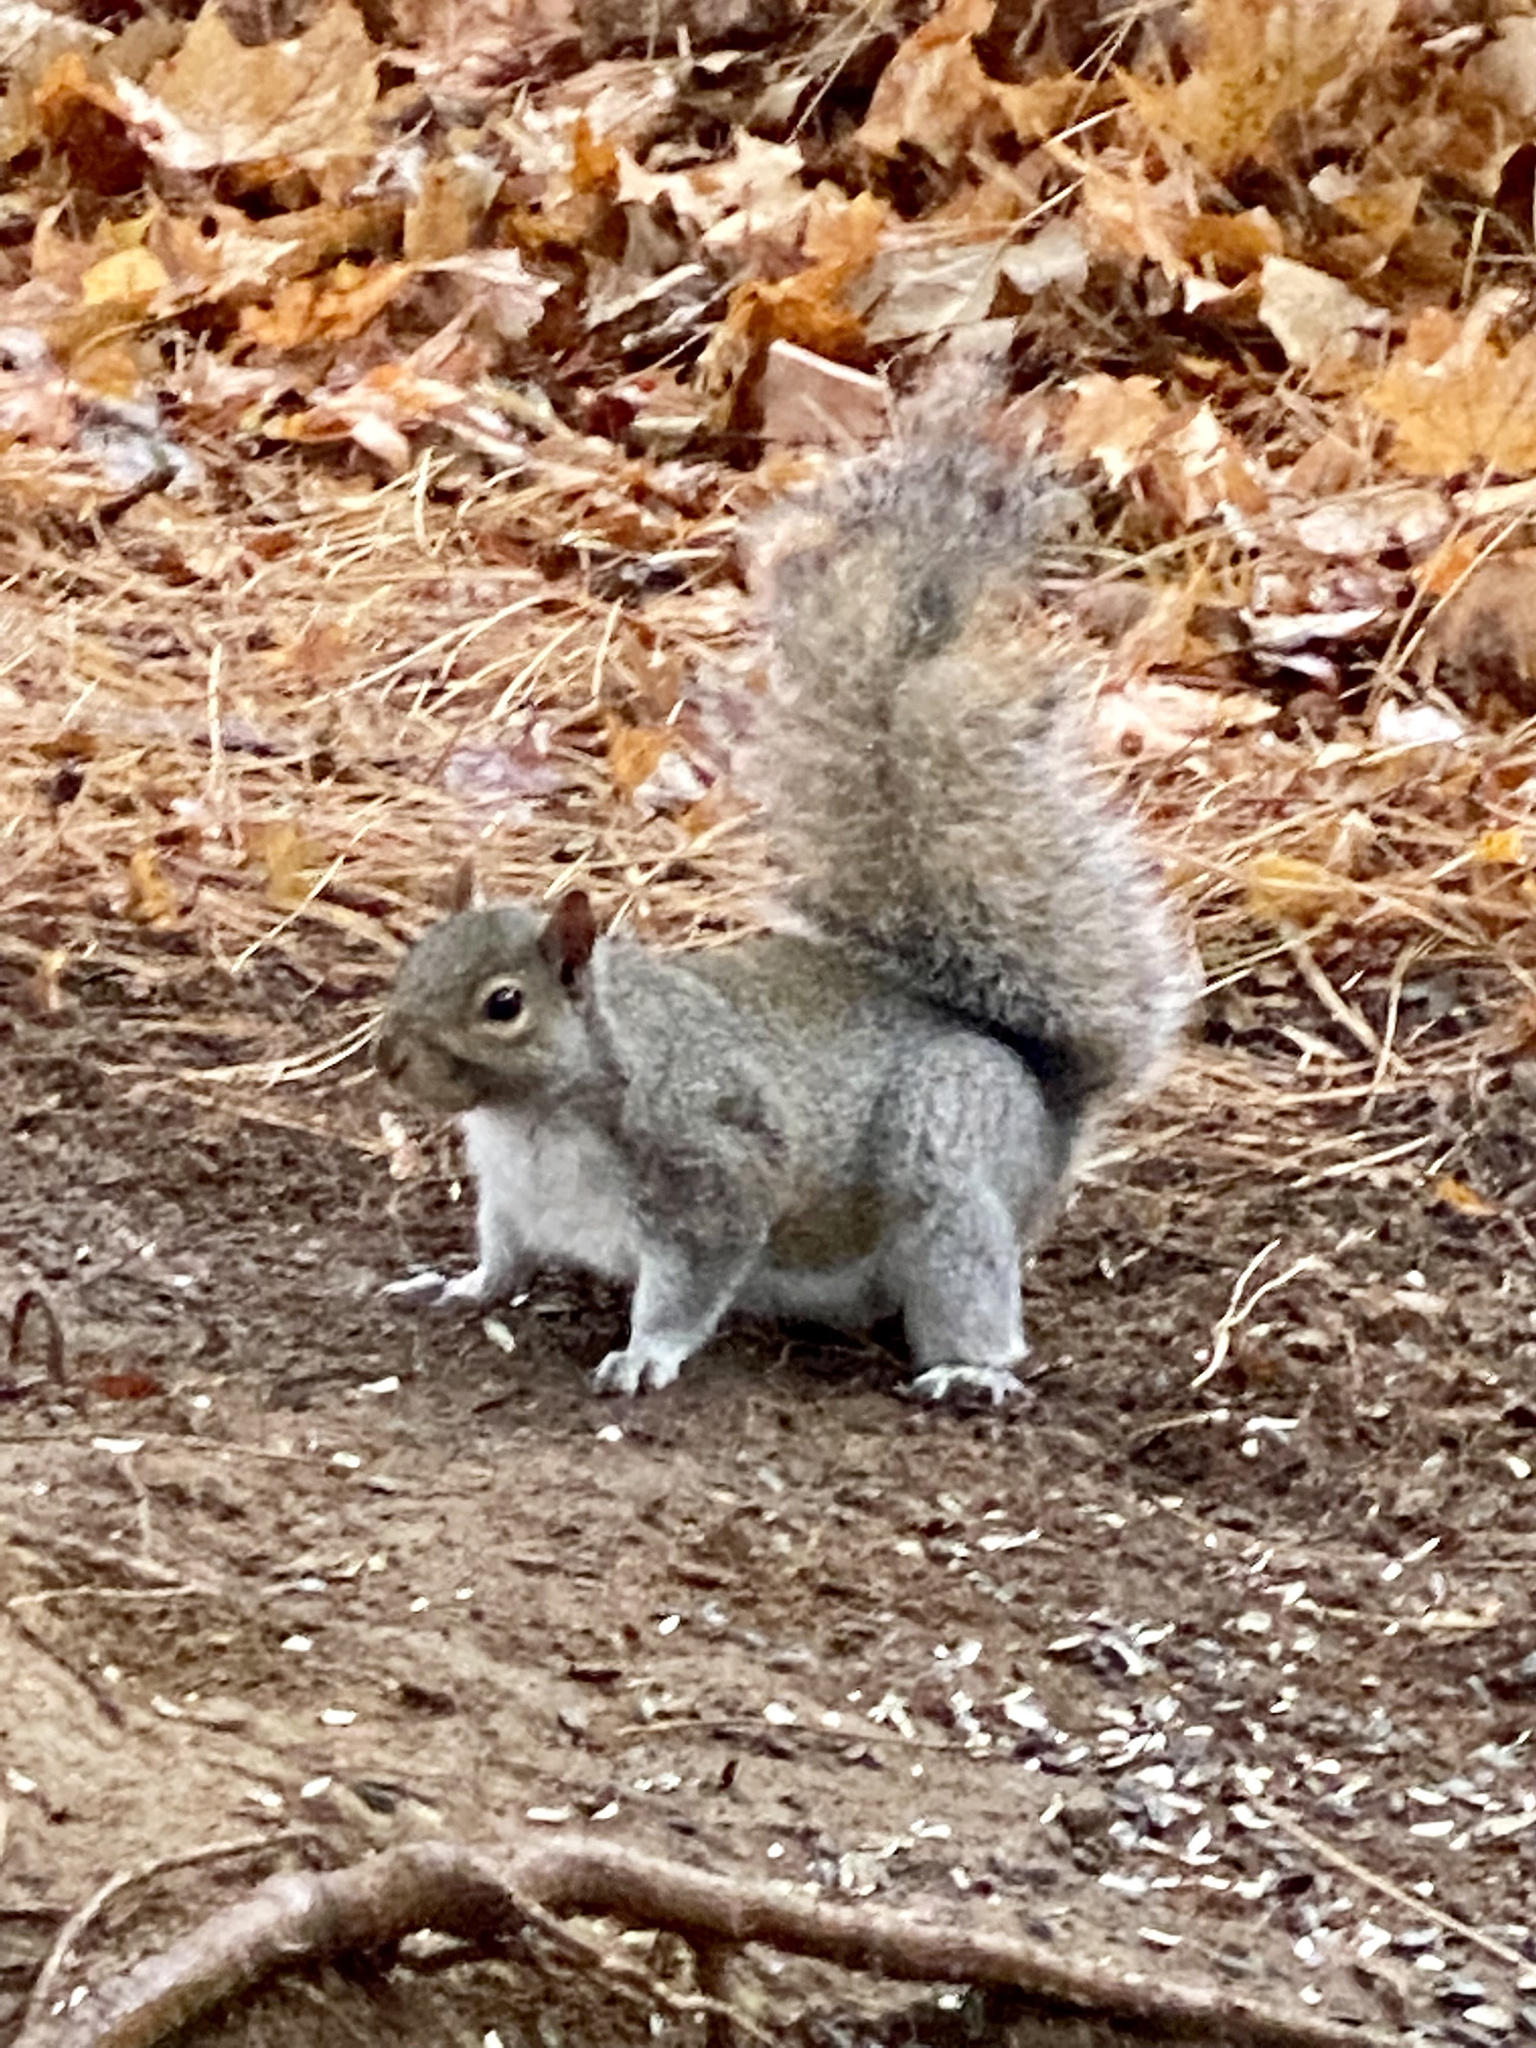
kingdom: Animalia
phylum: Chordata
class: Mammalia
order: Rodentia
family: Sciuridae
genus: Sciurus
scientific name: Sciurus carolinensis
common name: Eastern gray squirrel
